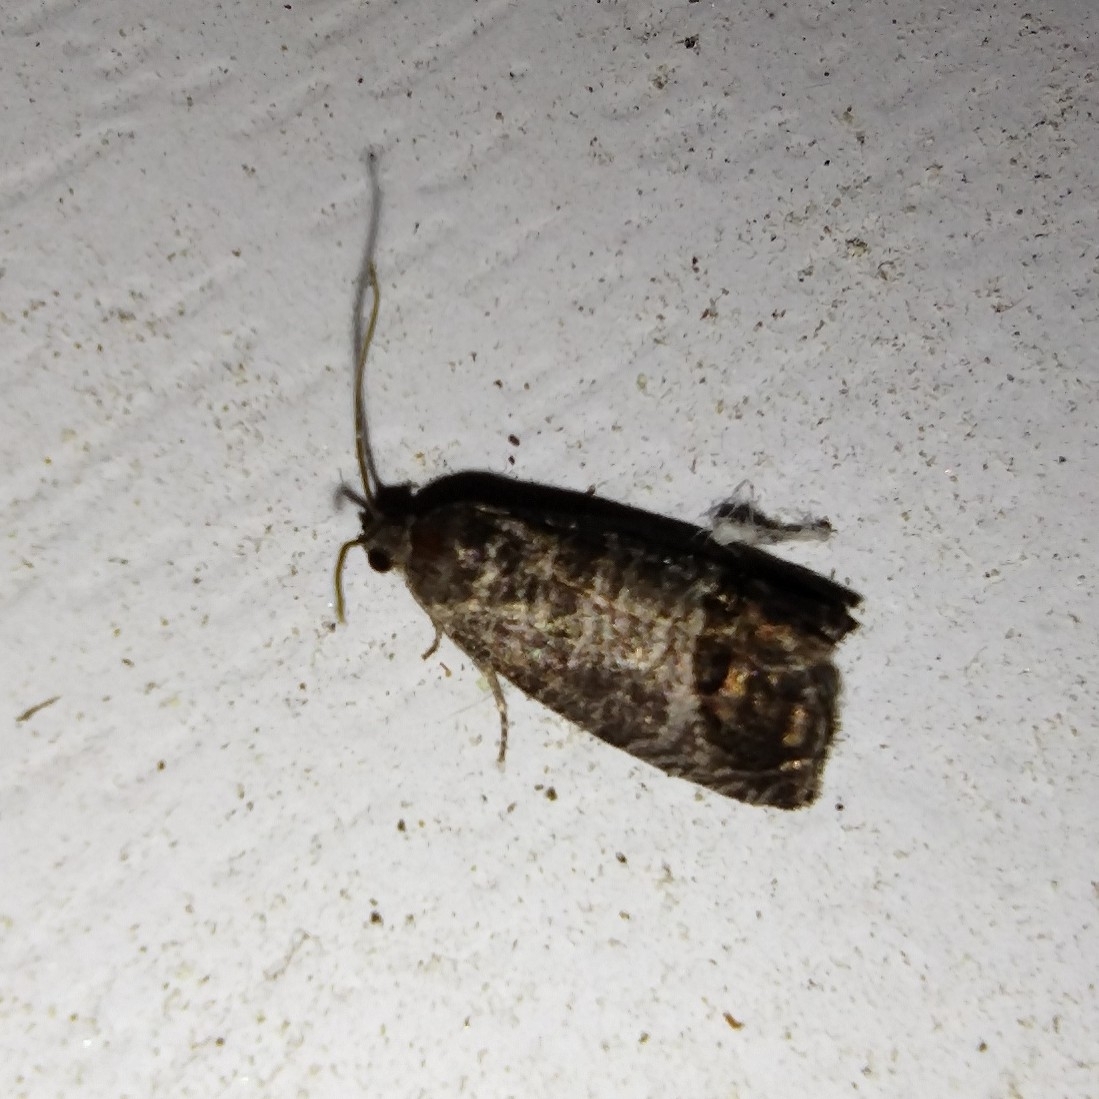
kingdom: Animalia
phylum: Arthropoda
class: Insecta
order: Lepidoptera
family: Tortricidae
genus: Cydia
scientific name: Cydia pomonella
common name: Codling moth
